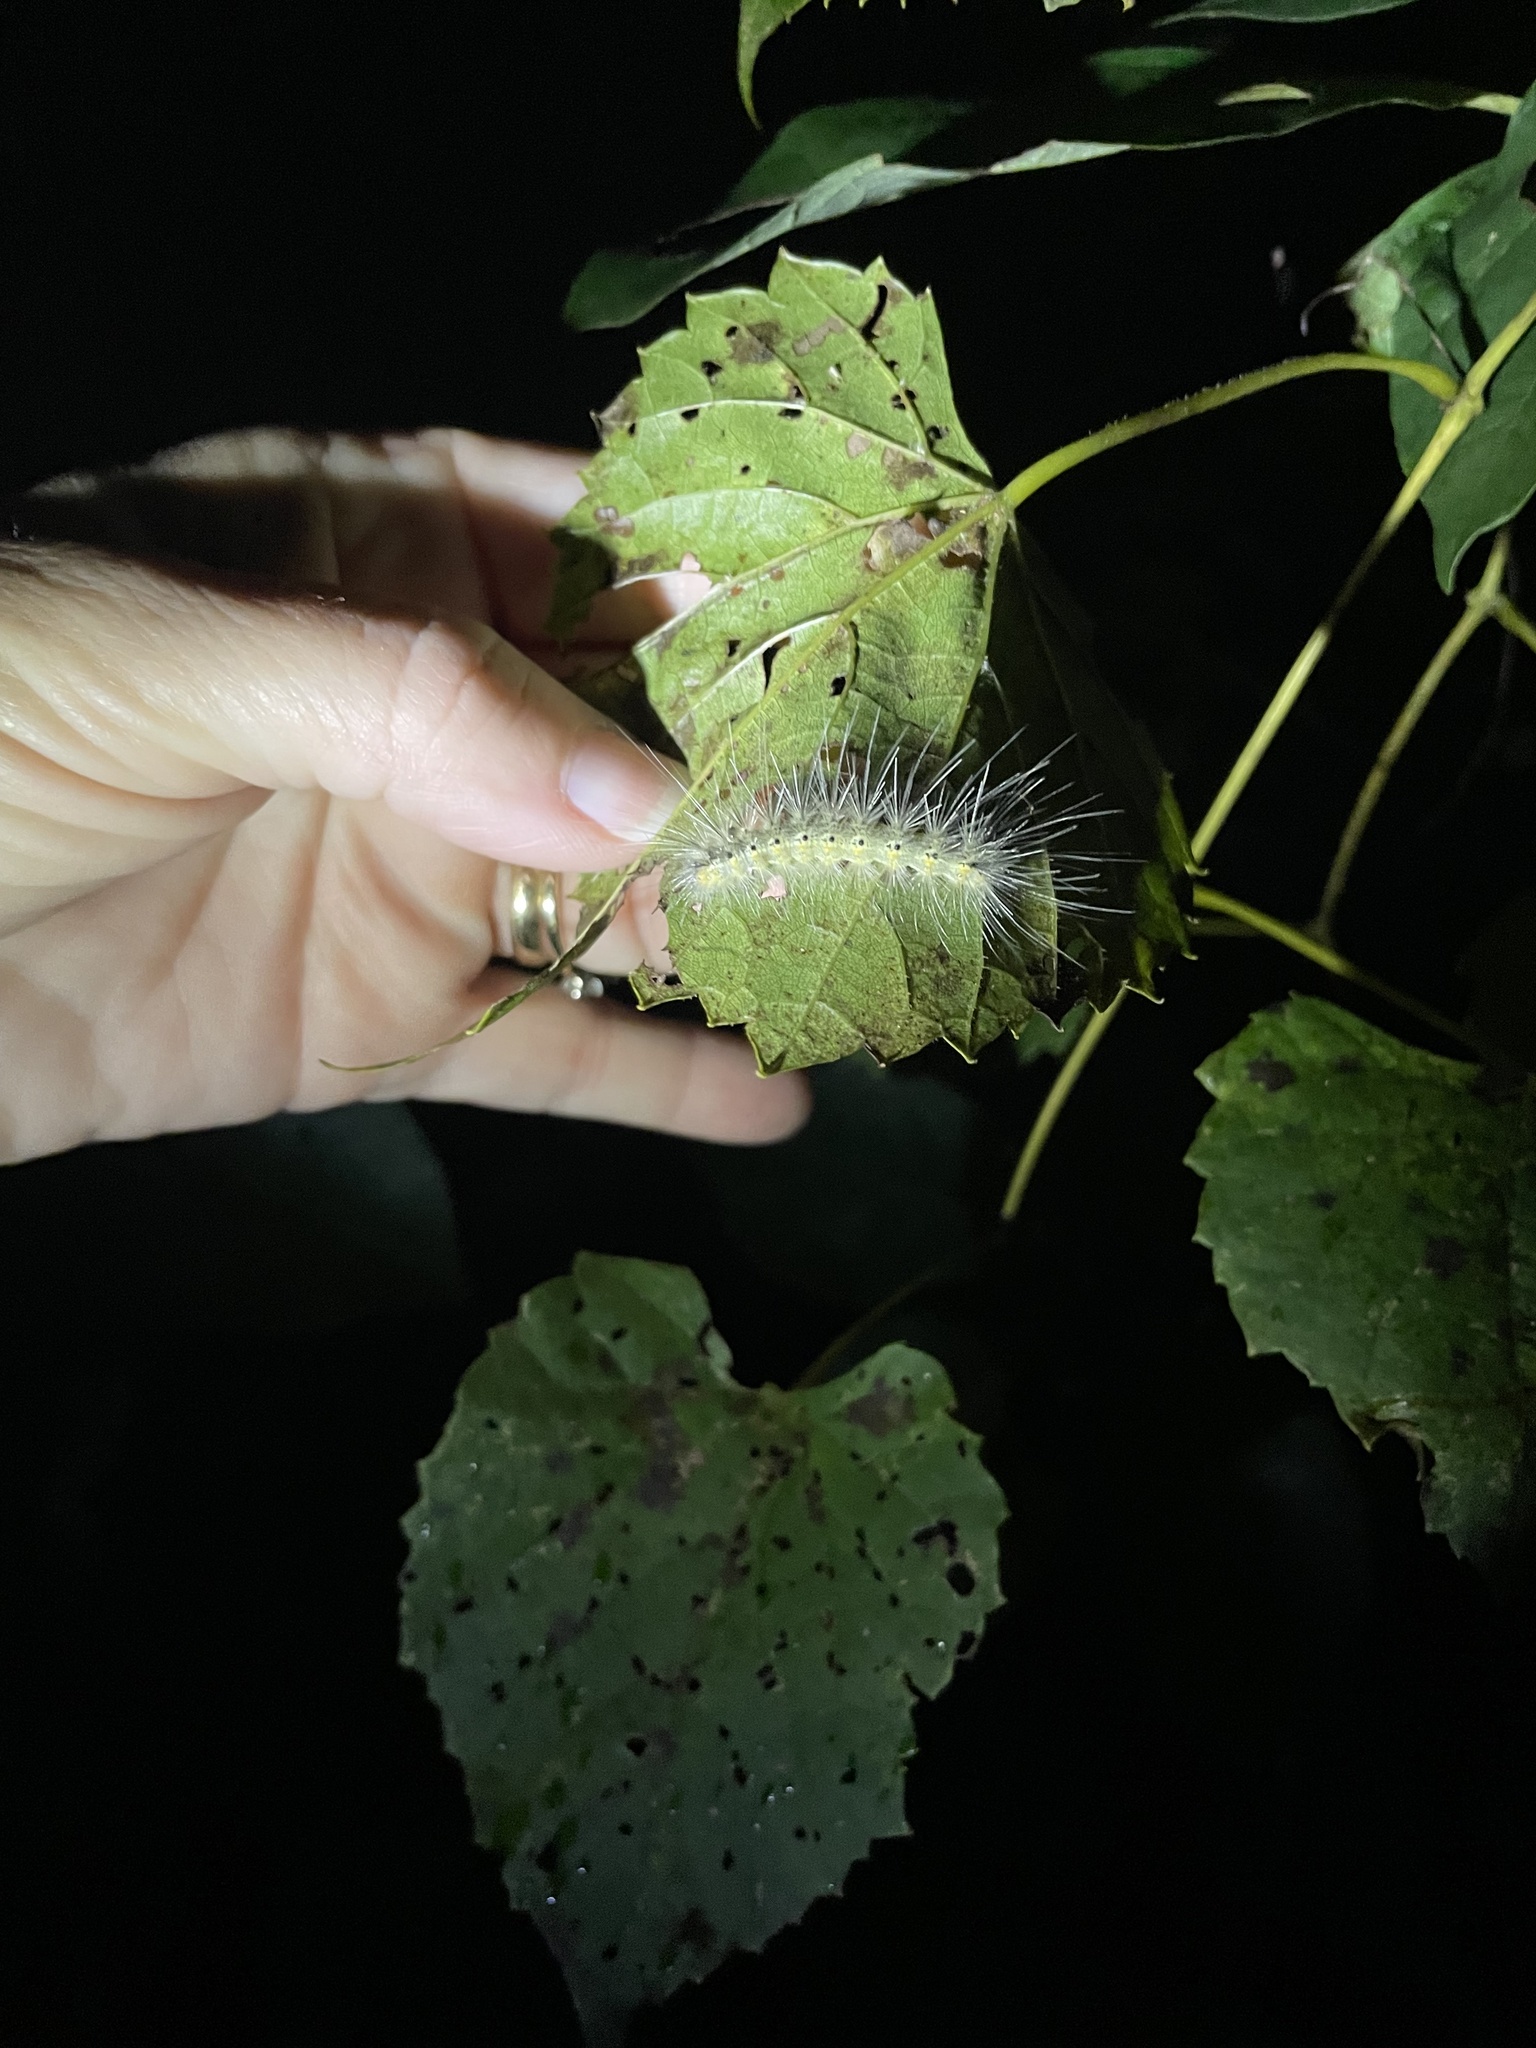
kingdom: Animalia
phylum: Arthropoda
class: Insecta
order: Lepidoptera
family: Erebidae
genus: Hyphantria
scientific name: Hyphantria cunea
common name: American white moth
